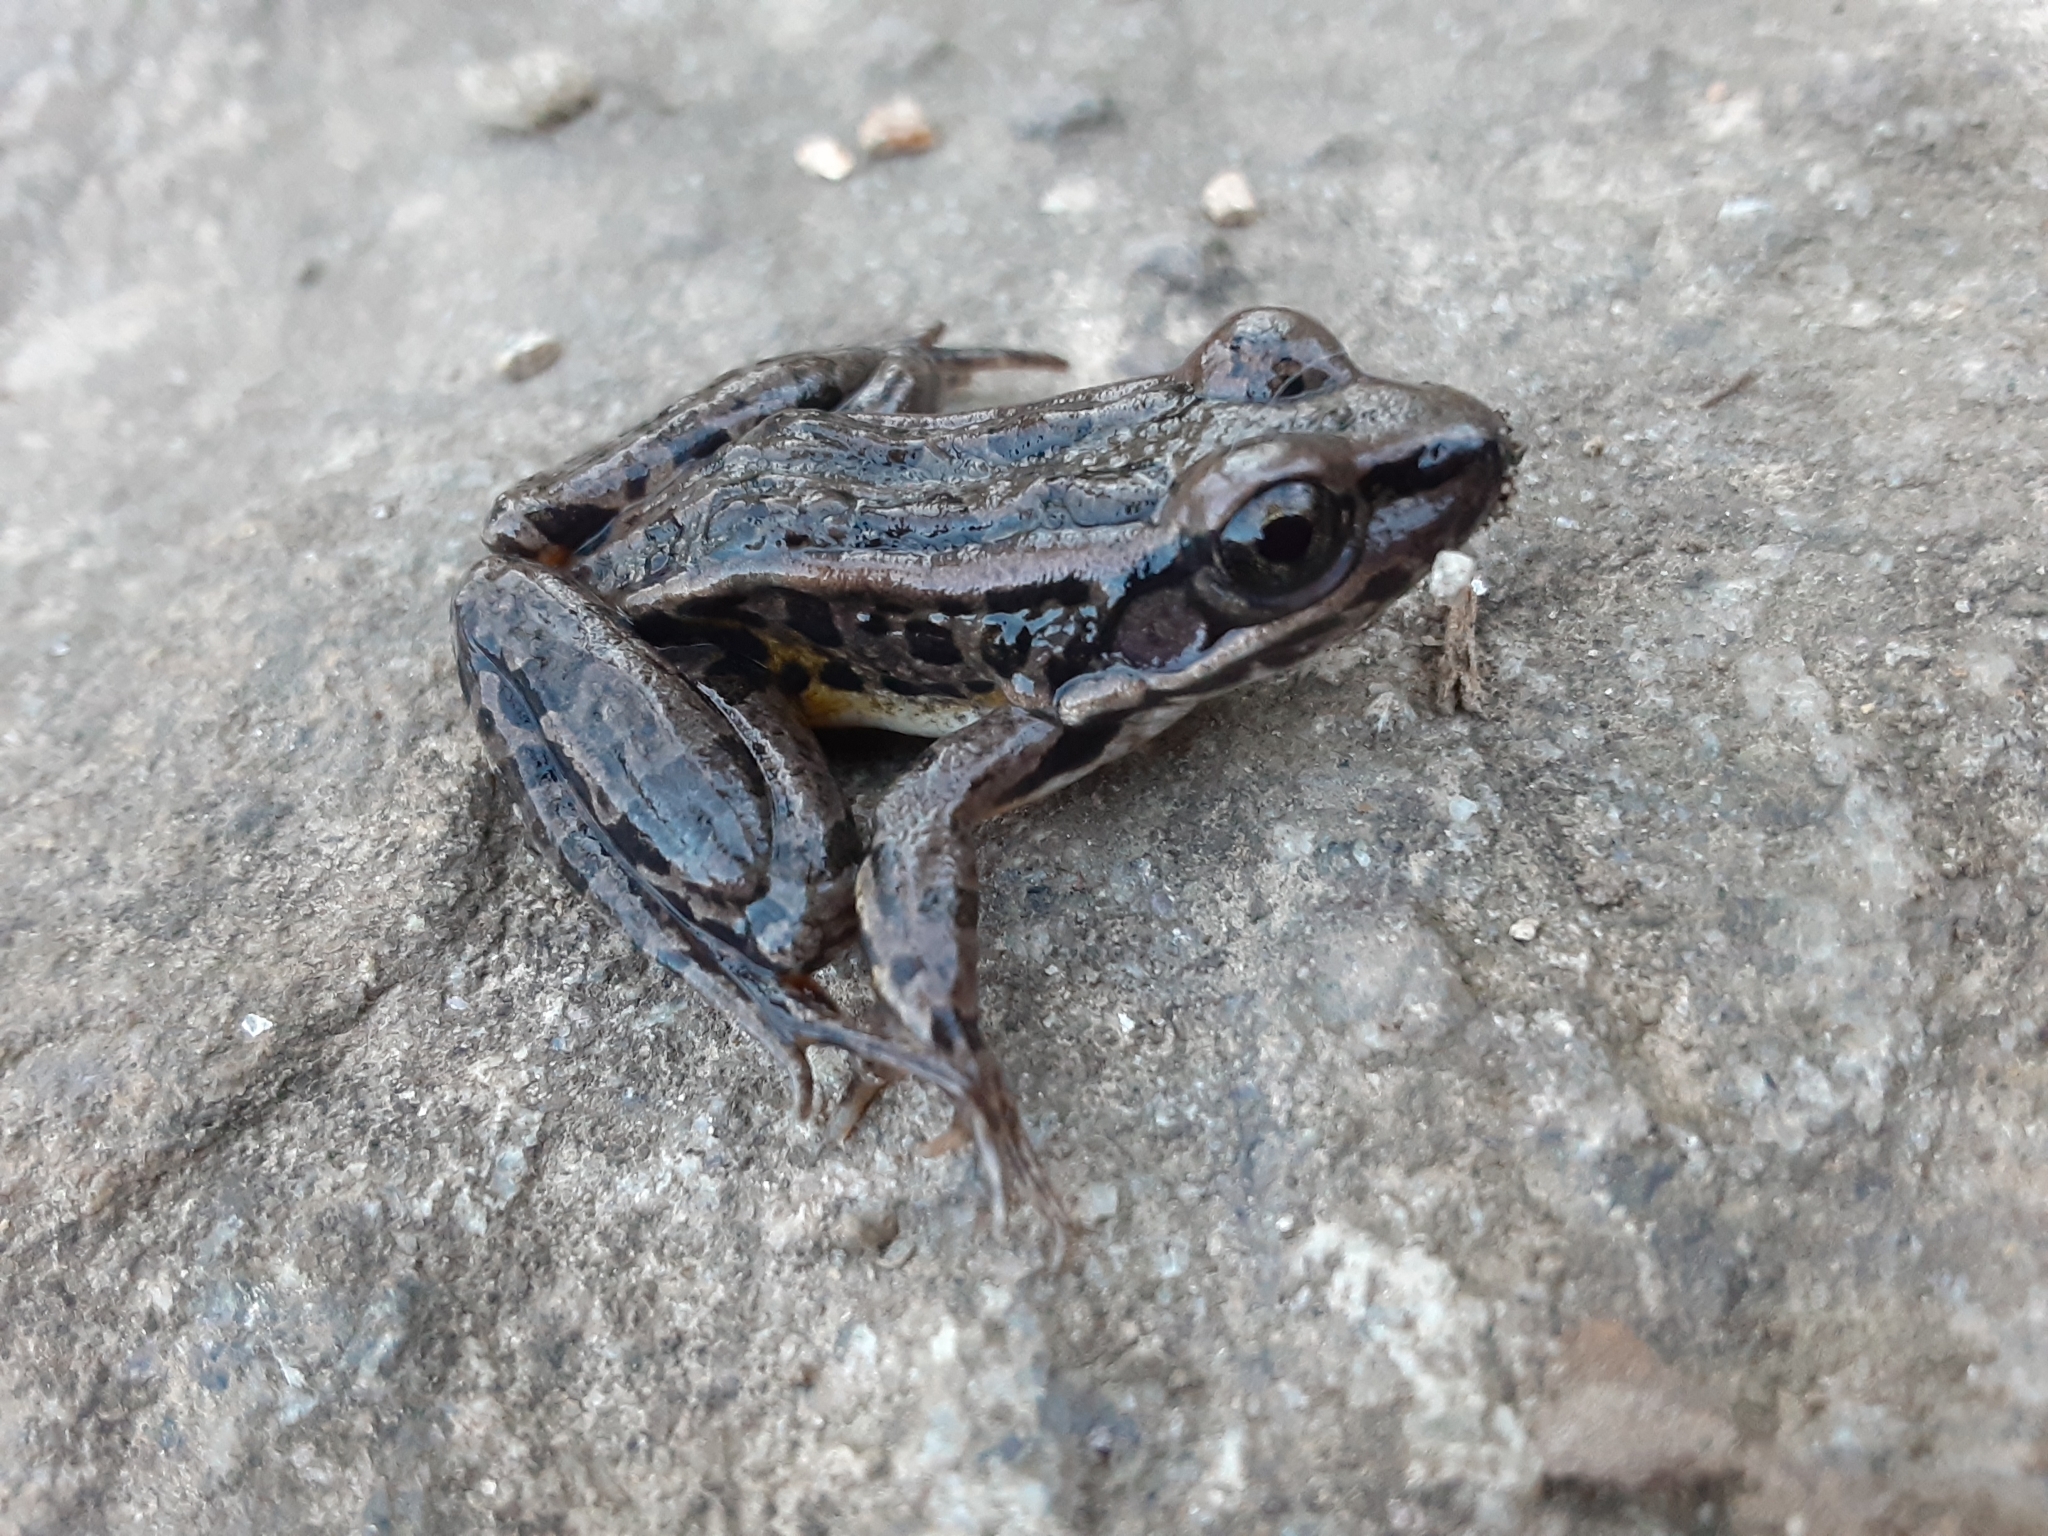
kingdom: Animalia
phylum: Chordata
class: Amphibia
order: Anura
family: Ranidae
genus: Lithobates
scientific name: Lithobates palustris
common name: Pickerel frog
